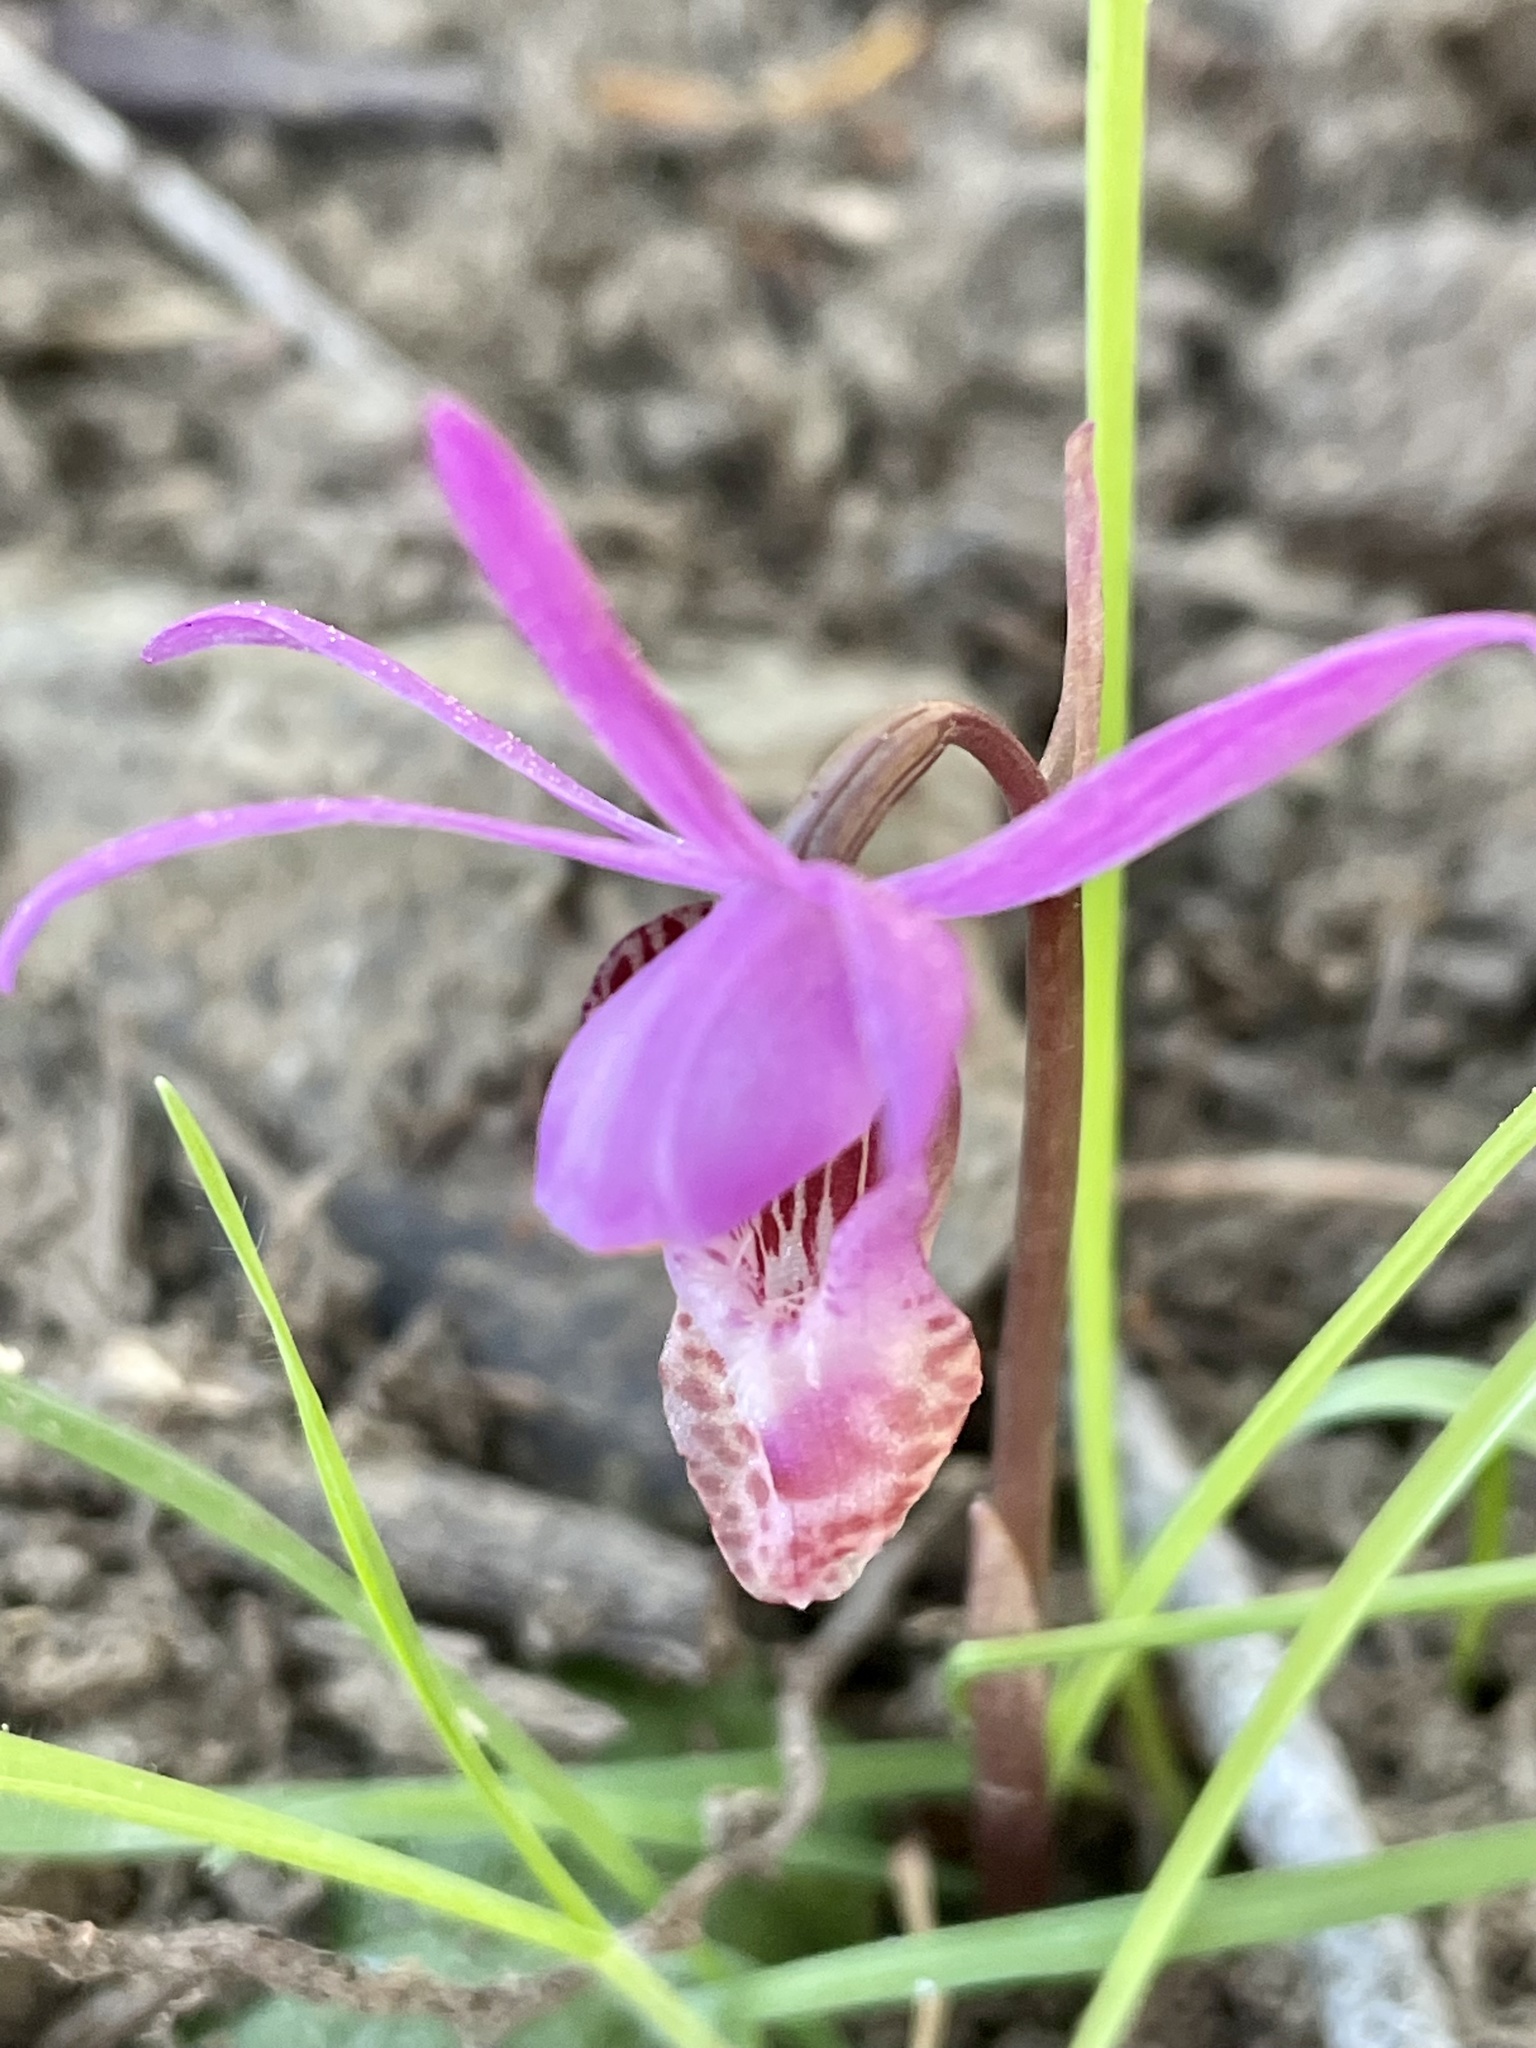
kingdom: Plantae
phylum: Tracheophyta
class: Liliopsida
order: Asparagales
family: Orchidaceae
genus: Calypso
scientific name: Calypso bulbosa
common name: Calypso
